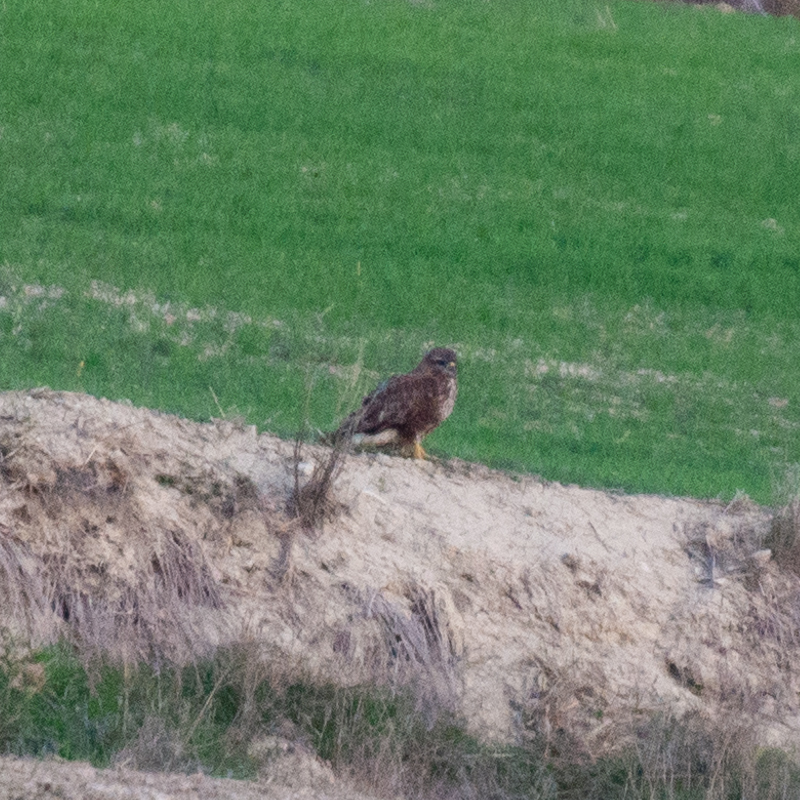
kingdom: Animalia
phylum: Chordata
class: Aves
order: Accipitriformes
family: Accipitridae
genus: Buteo
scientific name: Buteo buteo
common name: Common buzzard
